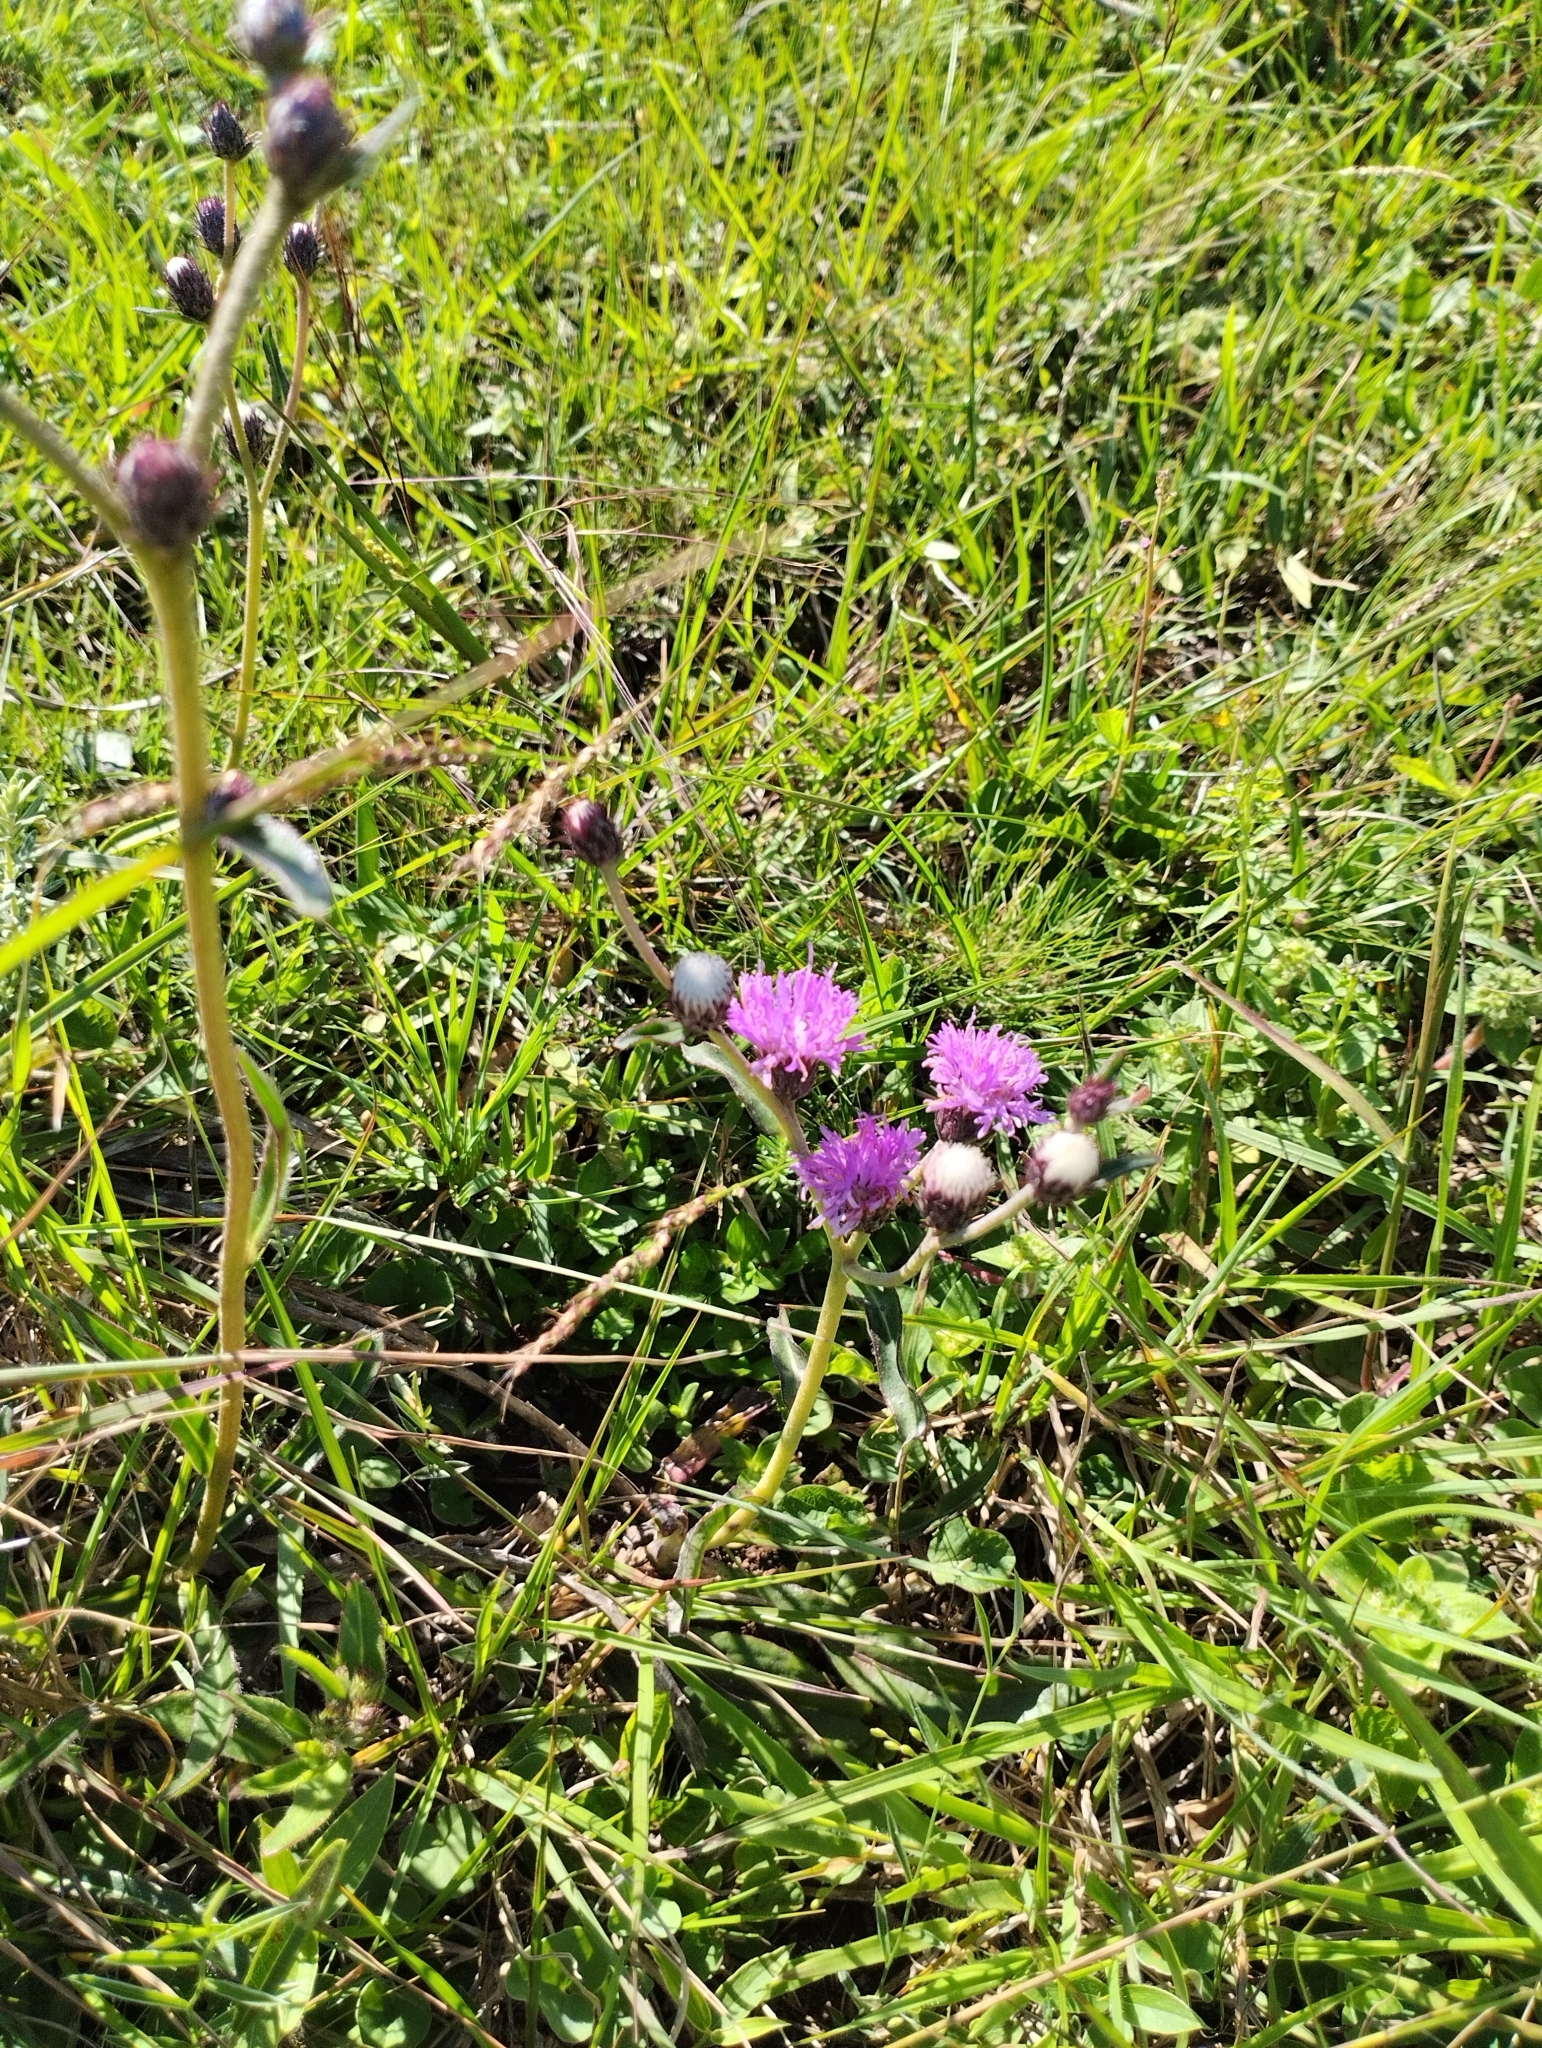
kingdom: Plantae
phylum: Tracheophyta
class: Magnoliopsida
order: Asterales
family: Asteraceae
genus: Chrysolaena
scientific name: Chrysolaena flexuosa
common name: Zig-zag vernonia
